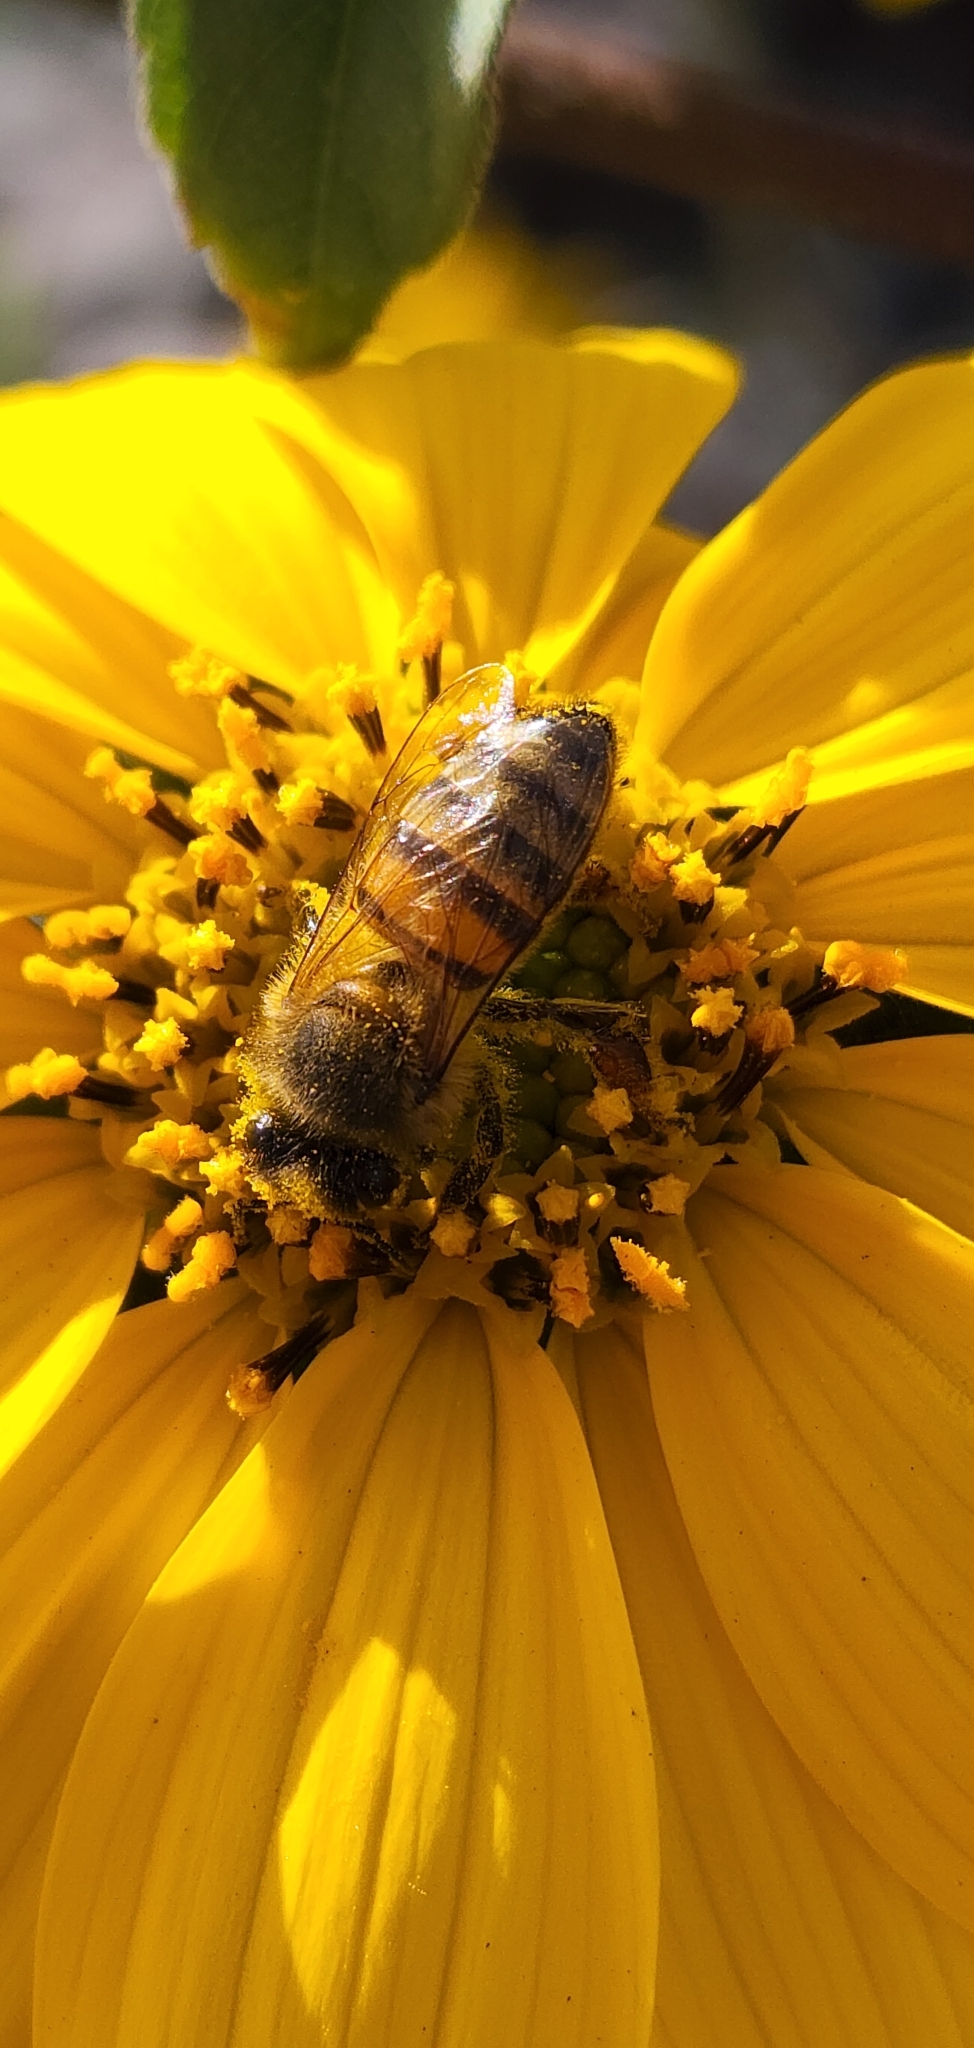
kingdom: Animalia
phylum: Arthropoda
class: Insecta
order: Hymenoptera
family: Apidae
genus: Apis
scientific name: Apis mellifera
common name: Honey bee
